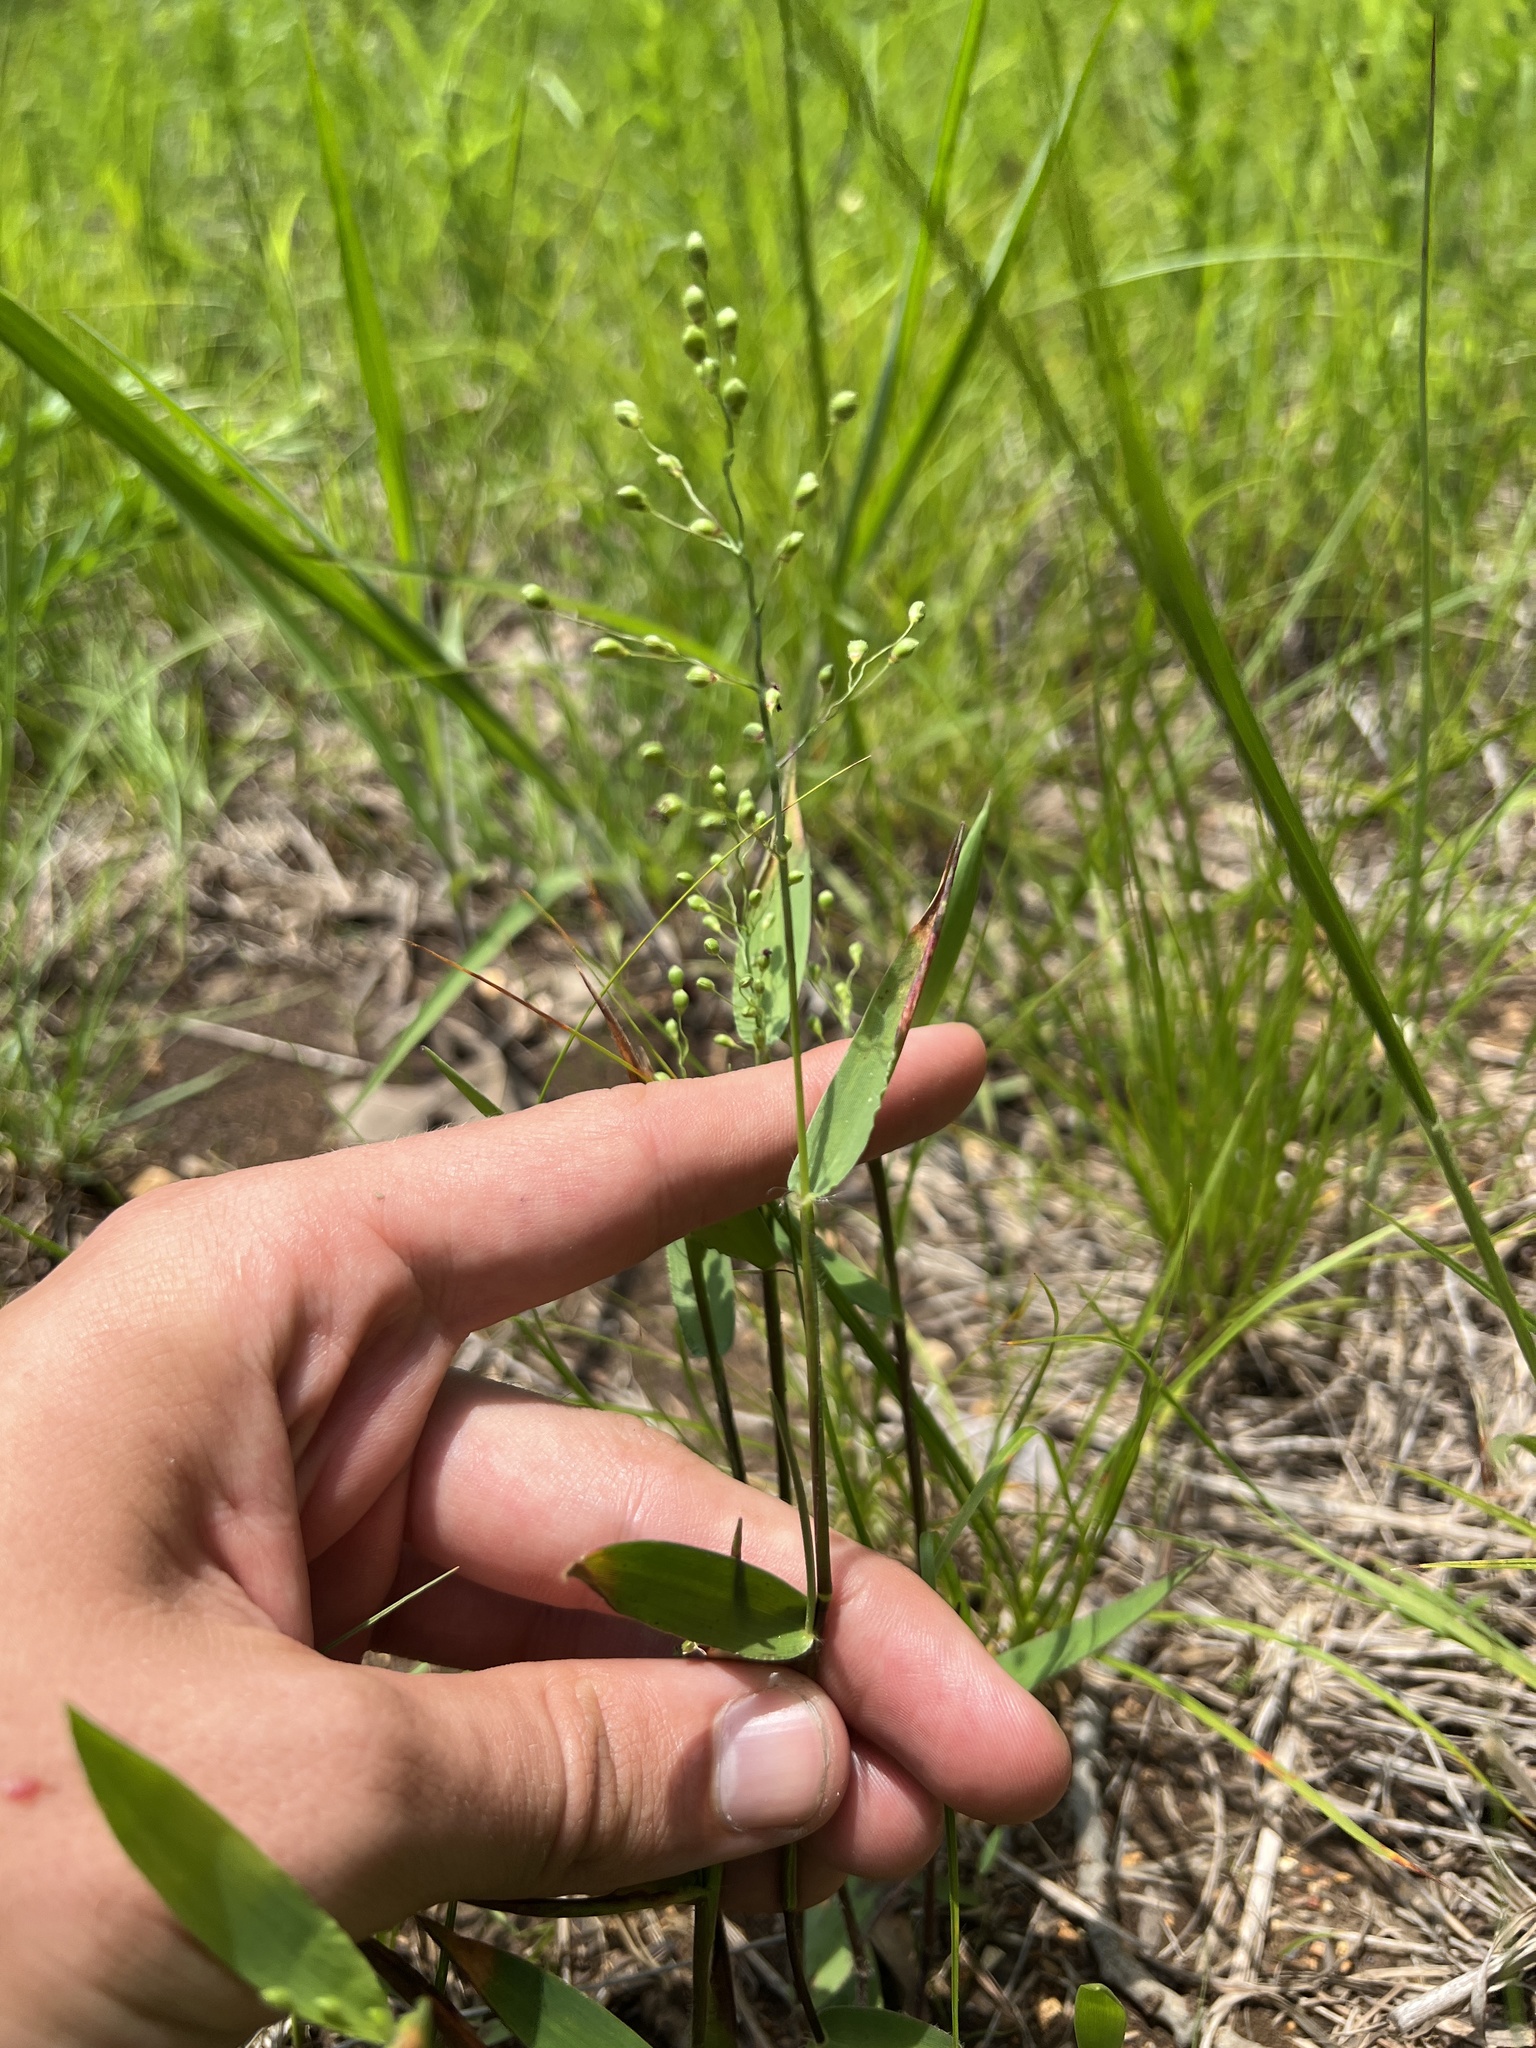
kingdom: Plantae
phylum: Tracheophyta
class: Liliopsida
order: Poales
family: Poaceae
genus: Dichanthelium
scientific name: Dichanthelium scribnerianum
